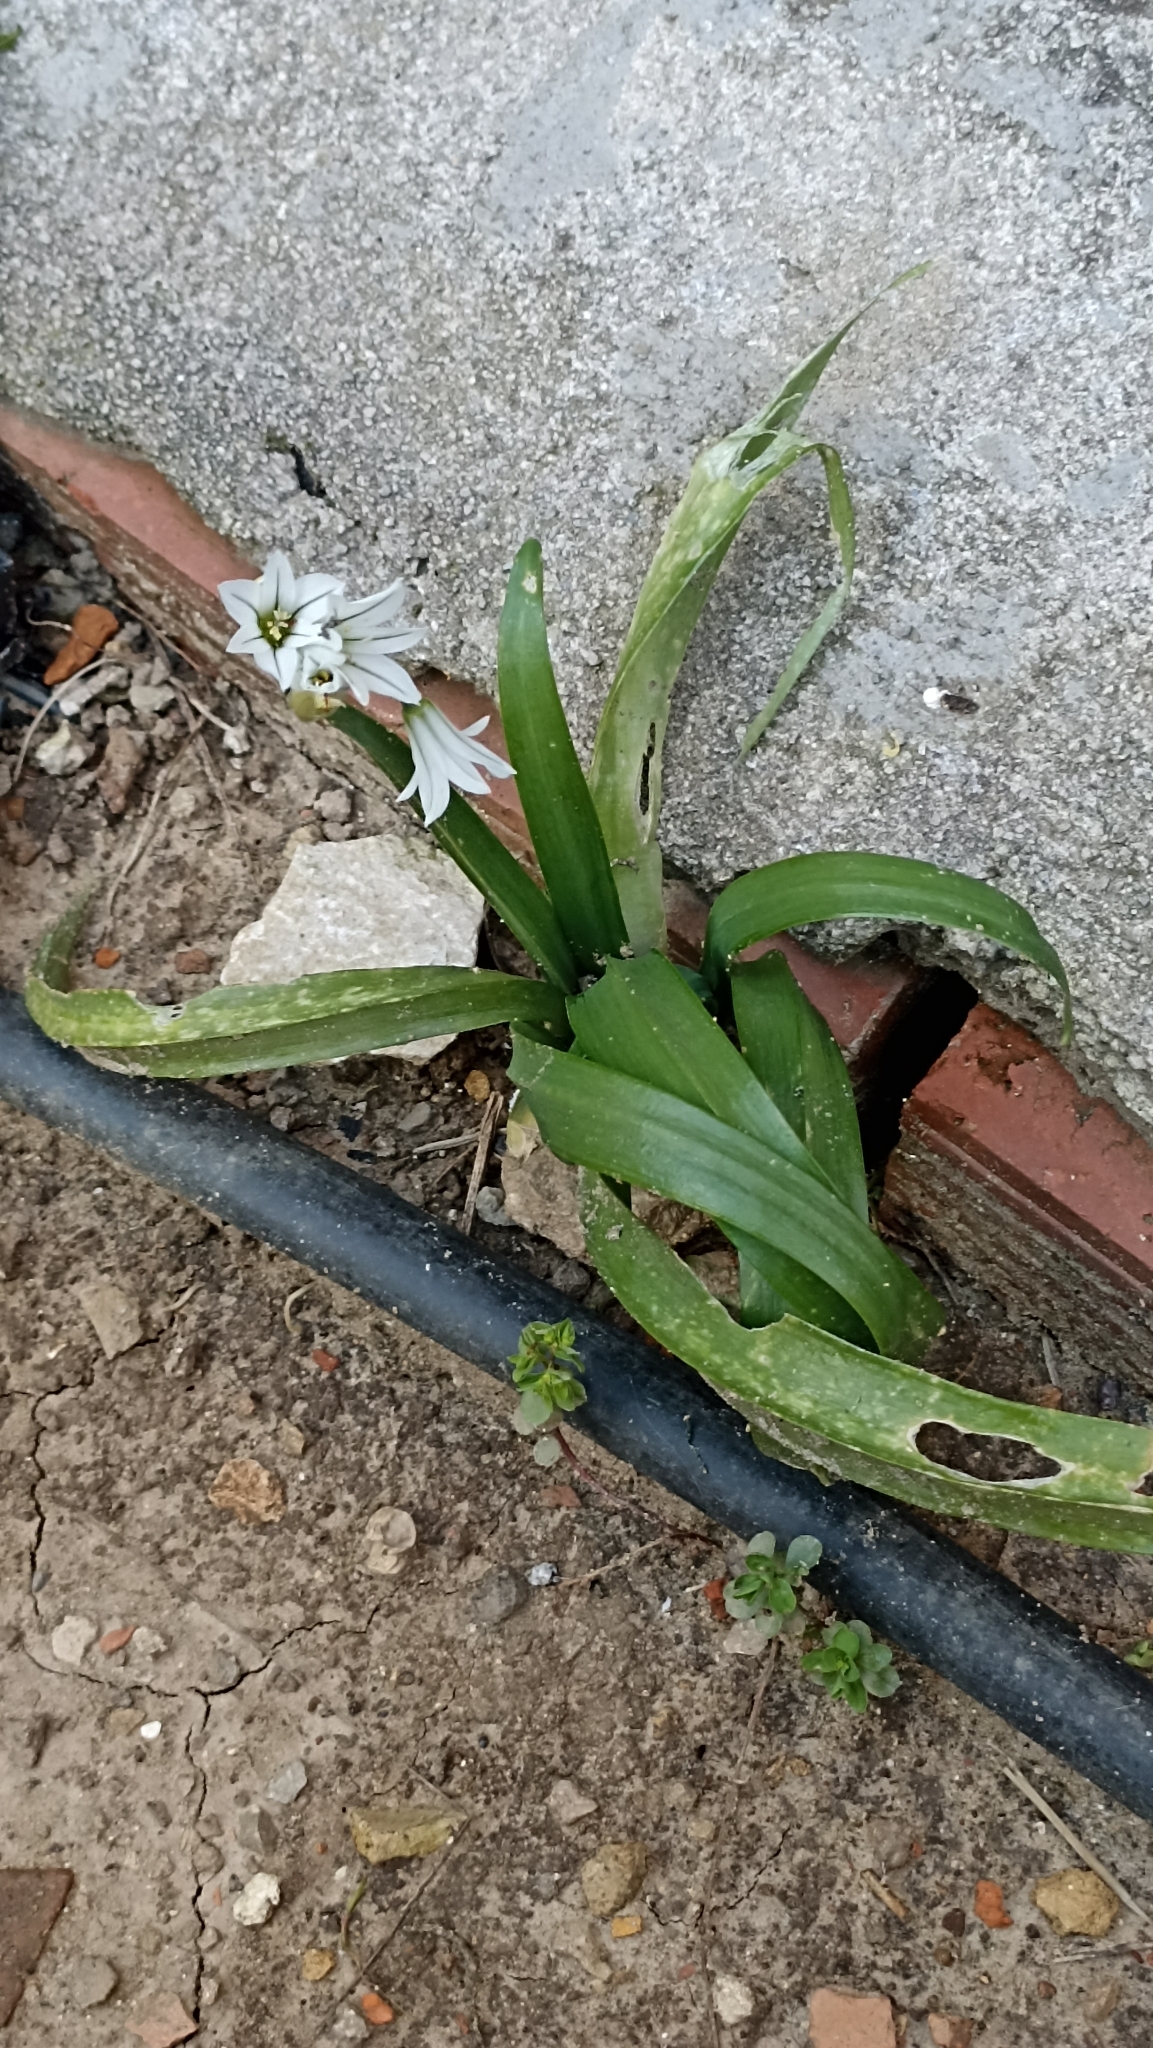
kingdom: Plantae
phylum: Tracheophyta
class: Liliopsida
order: Asparagales
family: Amaryllidaceae
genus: Allium
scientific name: Allium triquetrum
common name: Three-cornered garlic
